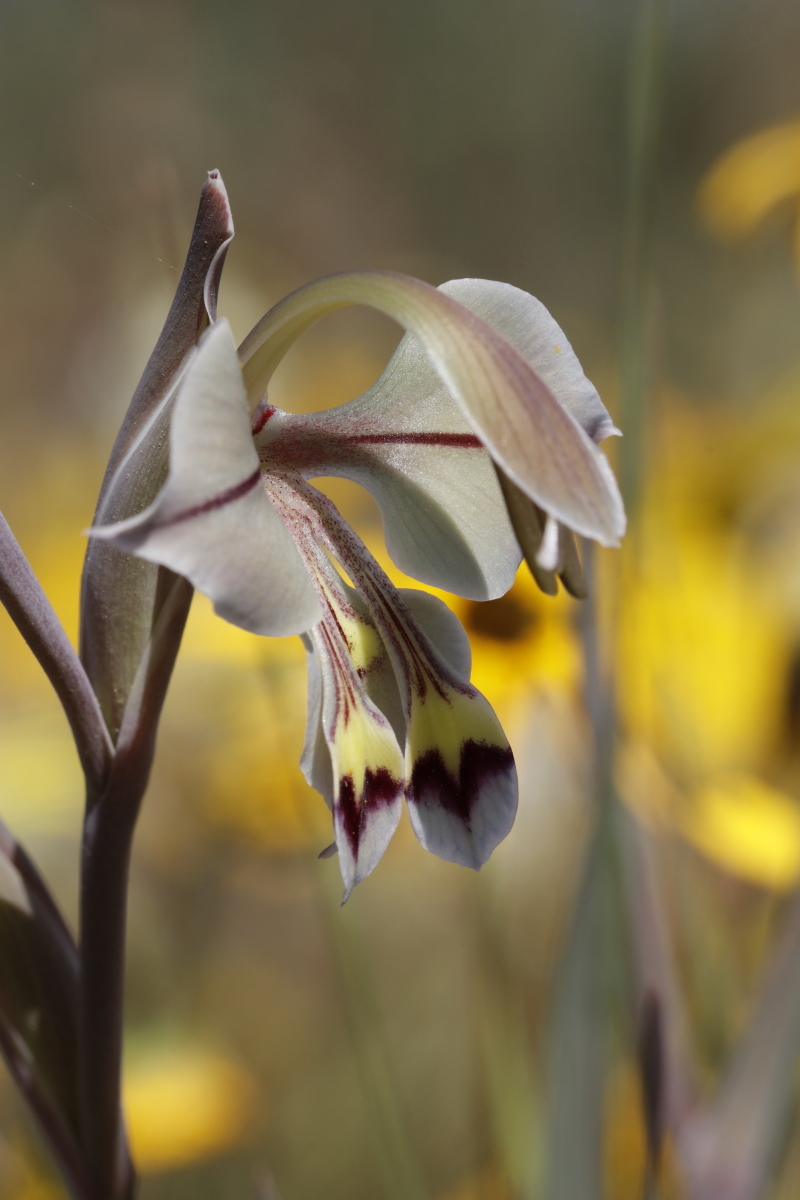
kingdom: Plantae
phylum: Tracheophyta
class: Liliopsida
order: Asparagales
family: Iridaceae
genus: Gladiolus
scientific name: Gladiolus orchidiflorus
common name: Gray kalkoentjie
